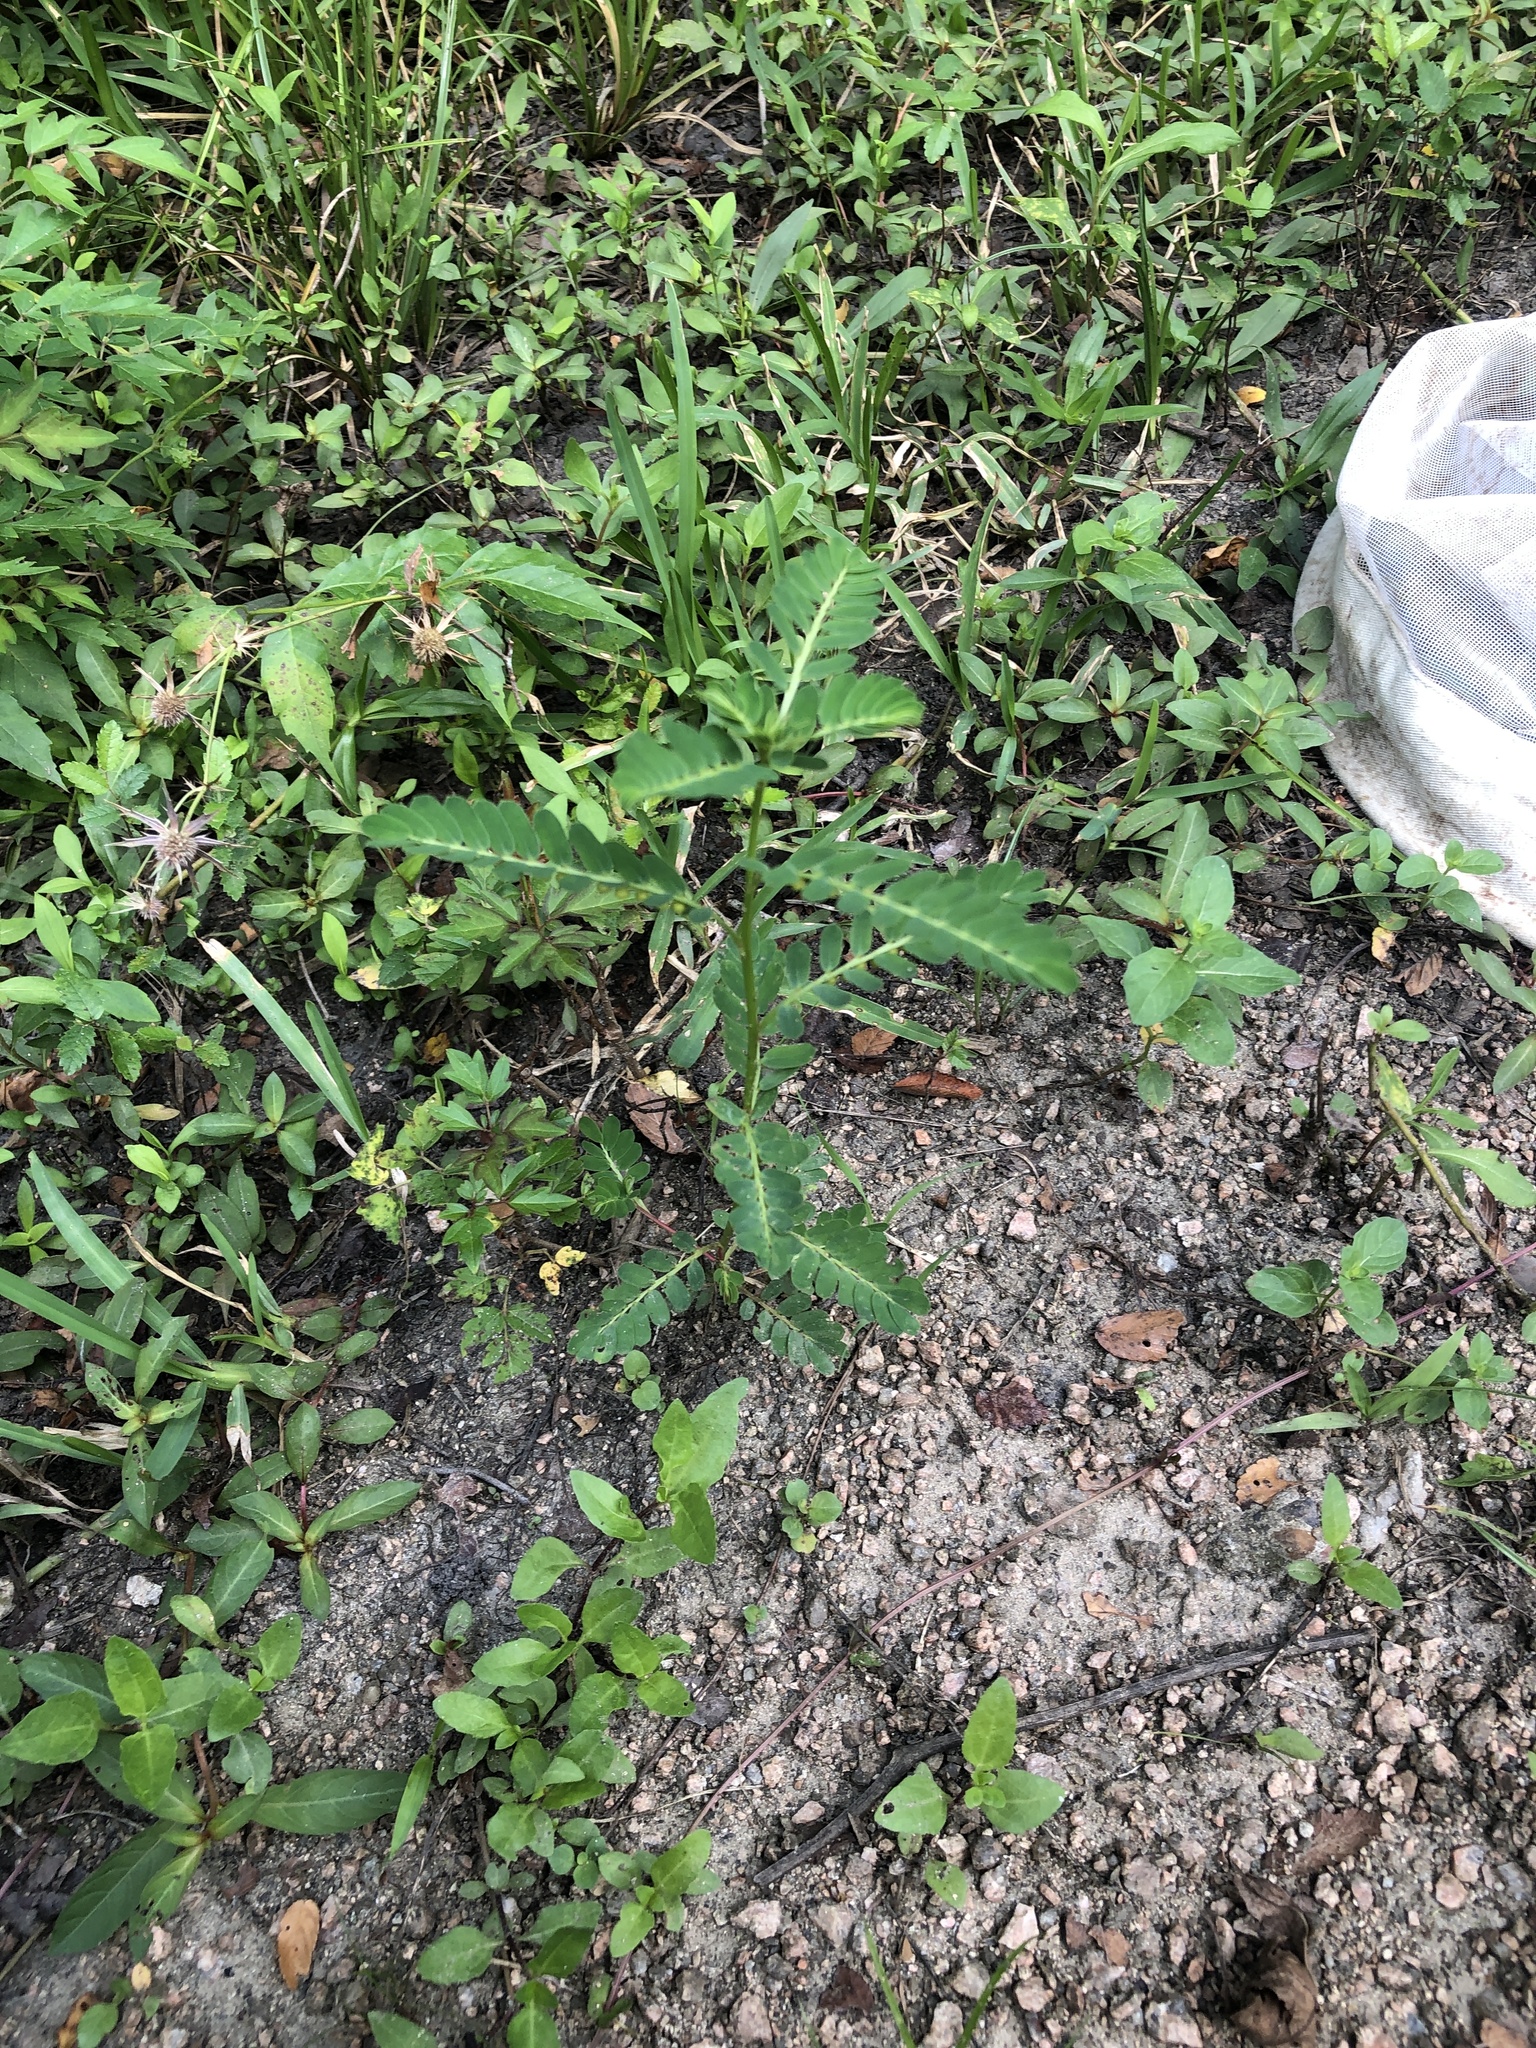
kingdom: Plantae
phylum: Tracheophyta
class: Magnoliopsida
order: Malpighiales
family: Phyllanthaceae
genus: Phyllanthus
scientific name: Phyllanthus urinaria
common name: Chamber bitter
